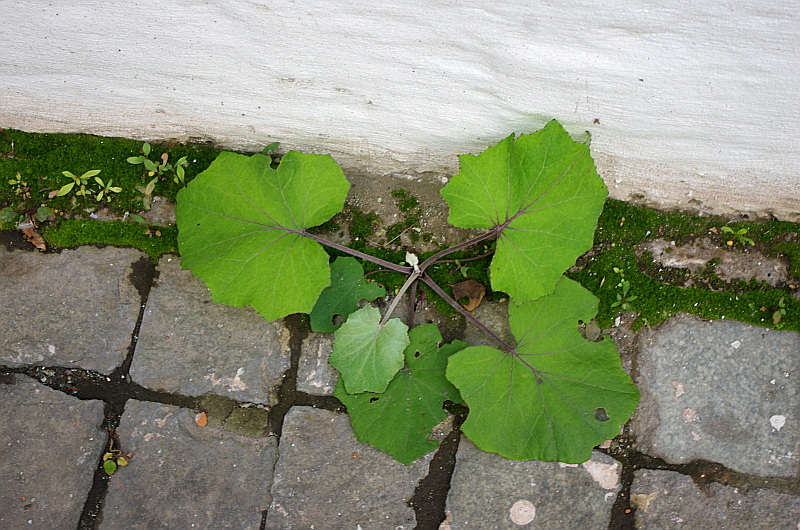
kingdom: Plantae
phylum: Tracheophyta
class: Magnoliopsida
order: Asterales
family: Asteraceae
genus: Tussilago
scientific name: Tussilago farfara
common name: Coltsfoot
